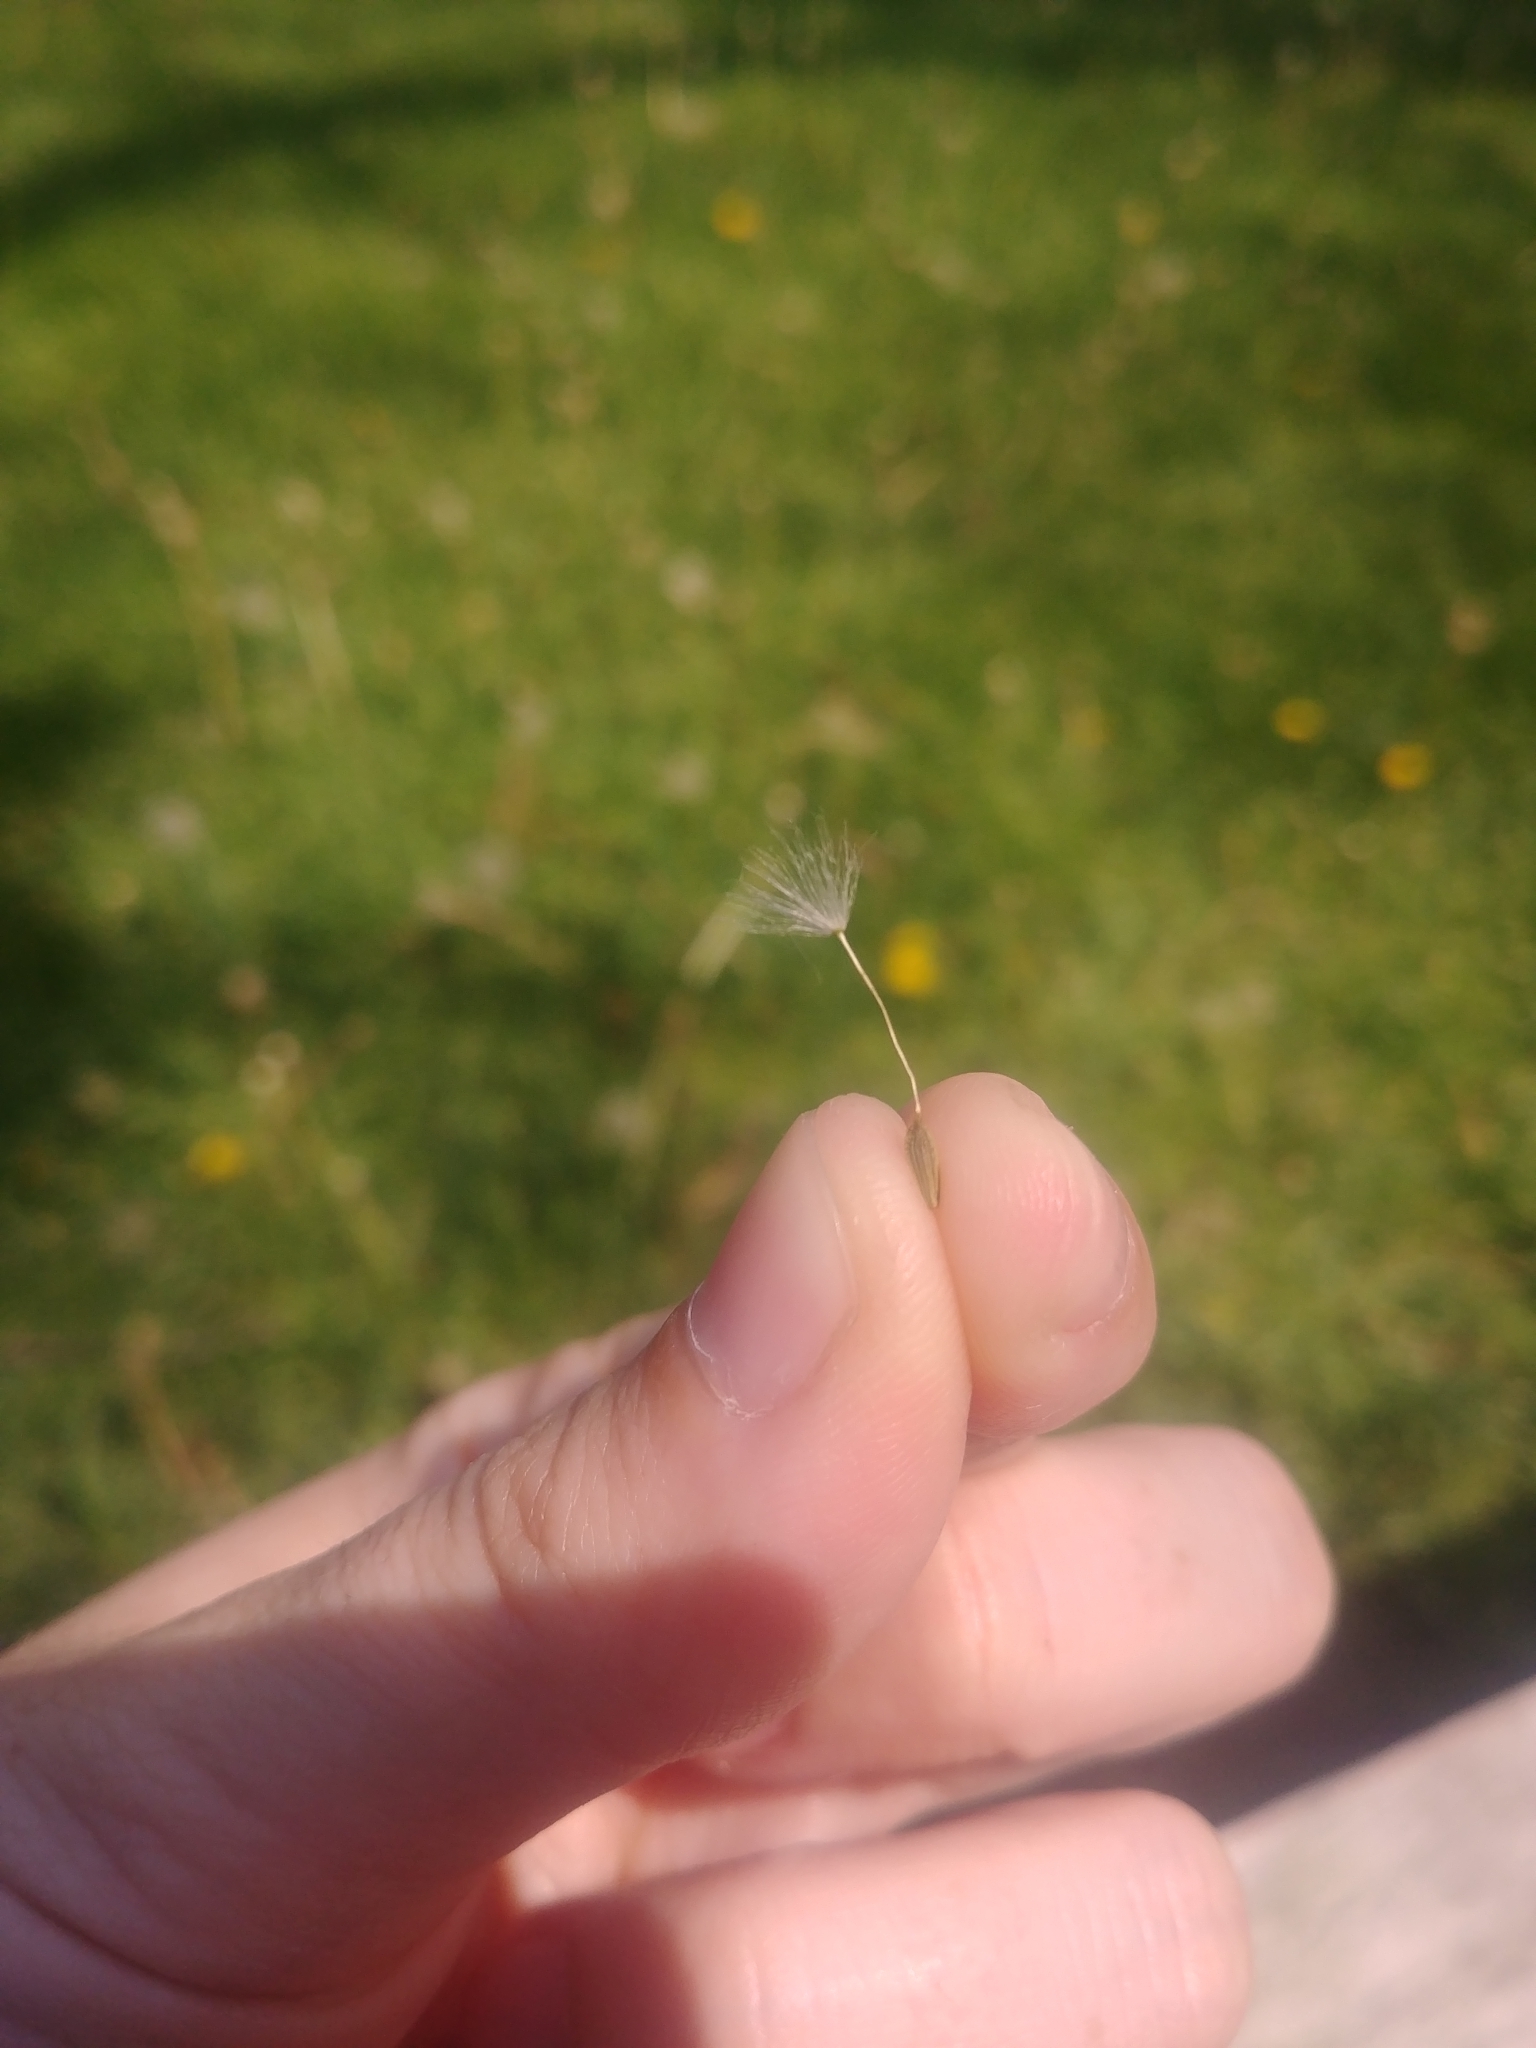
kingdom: Plantae
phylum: Tracheophyta
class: Magnoliopsida
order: Asterales
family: Asteraceae
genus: Taraxacum
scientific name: Taraxacum officinale
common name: Common dandelion
